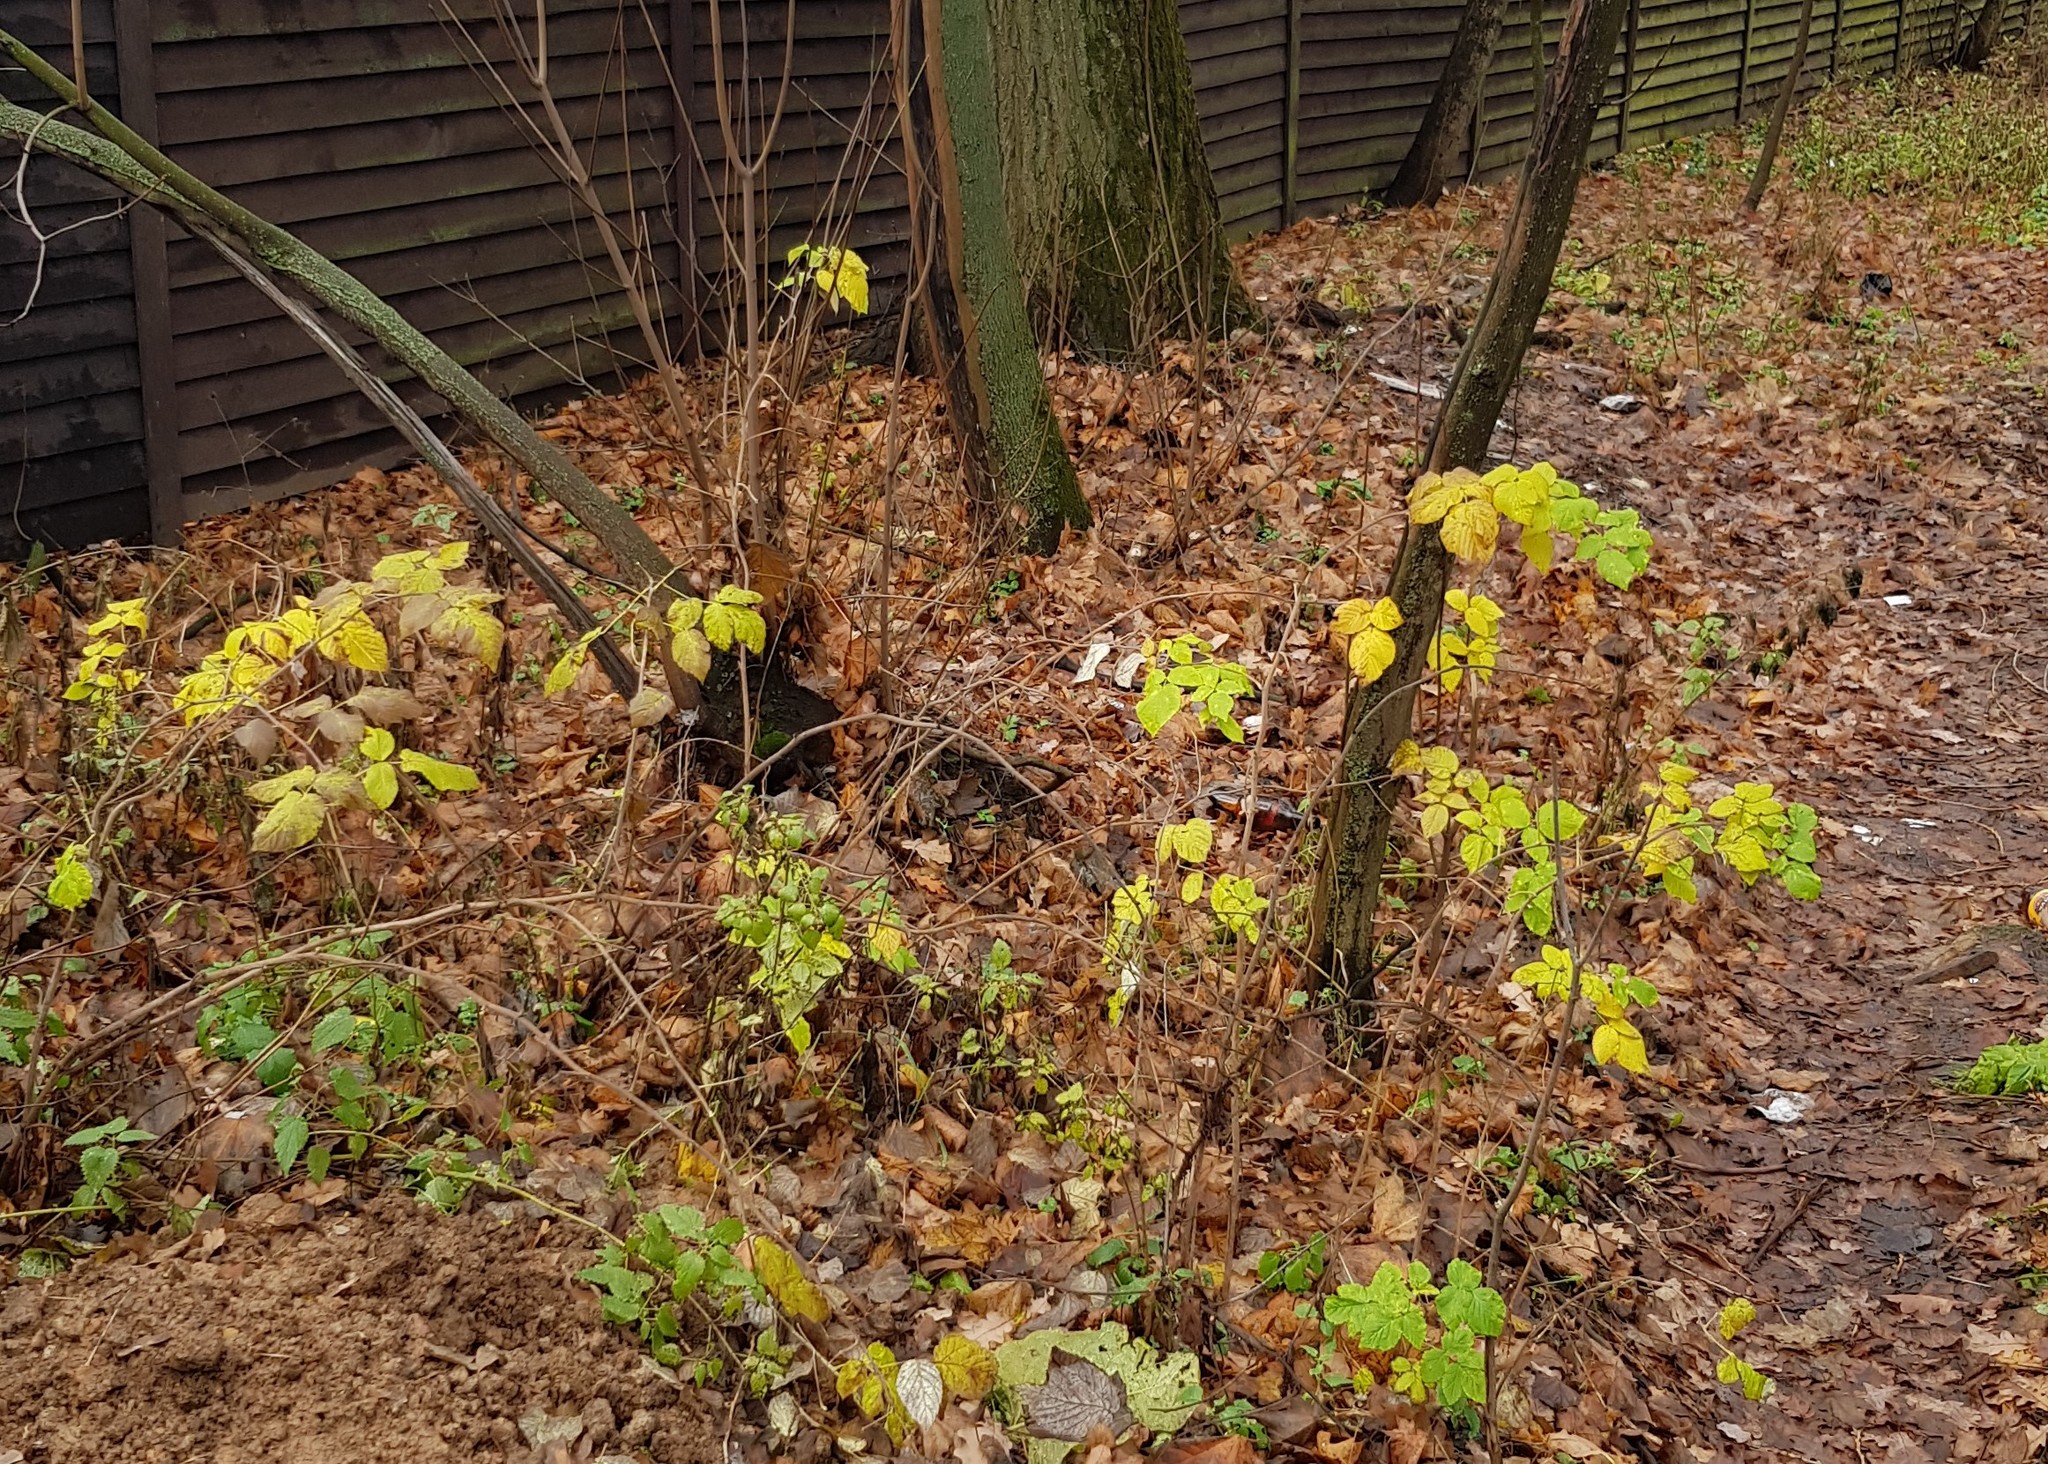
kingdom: Plantae
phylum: Tracheophyta
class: Magnoliopsida
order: Rosales
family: Rosaceae
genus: Rubus
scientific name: Rubus idaeus
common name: Raspberry
